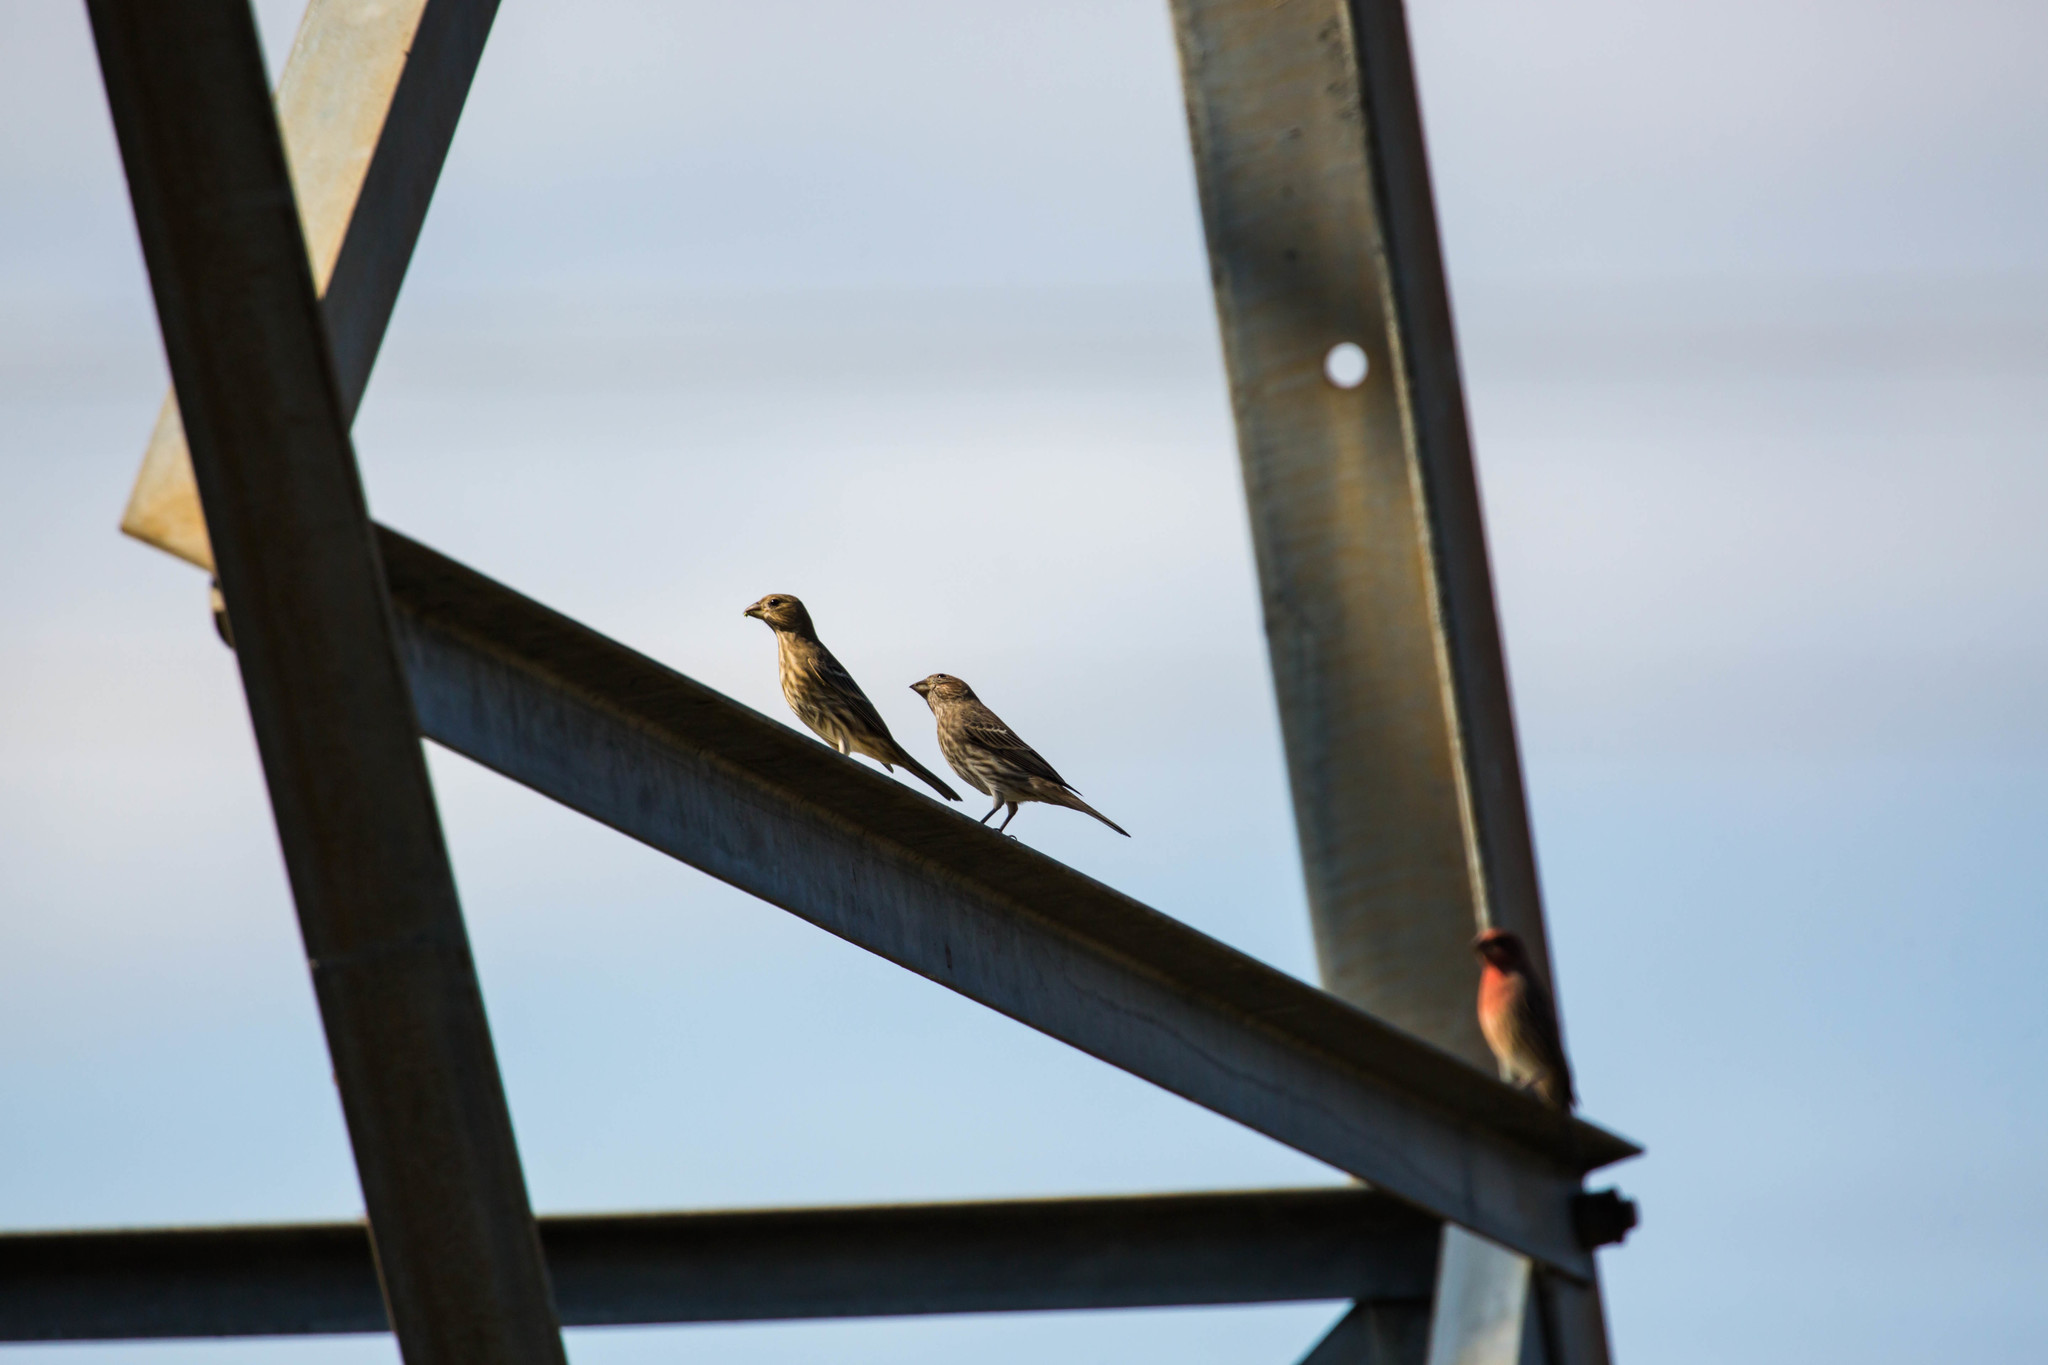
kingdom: Animalia
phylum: Chordata
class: Aves
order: Passeriformes
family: Fringillidae
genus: Haemorhous
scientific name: Haemorhous mexicanus
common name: House finch
